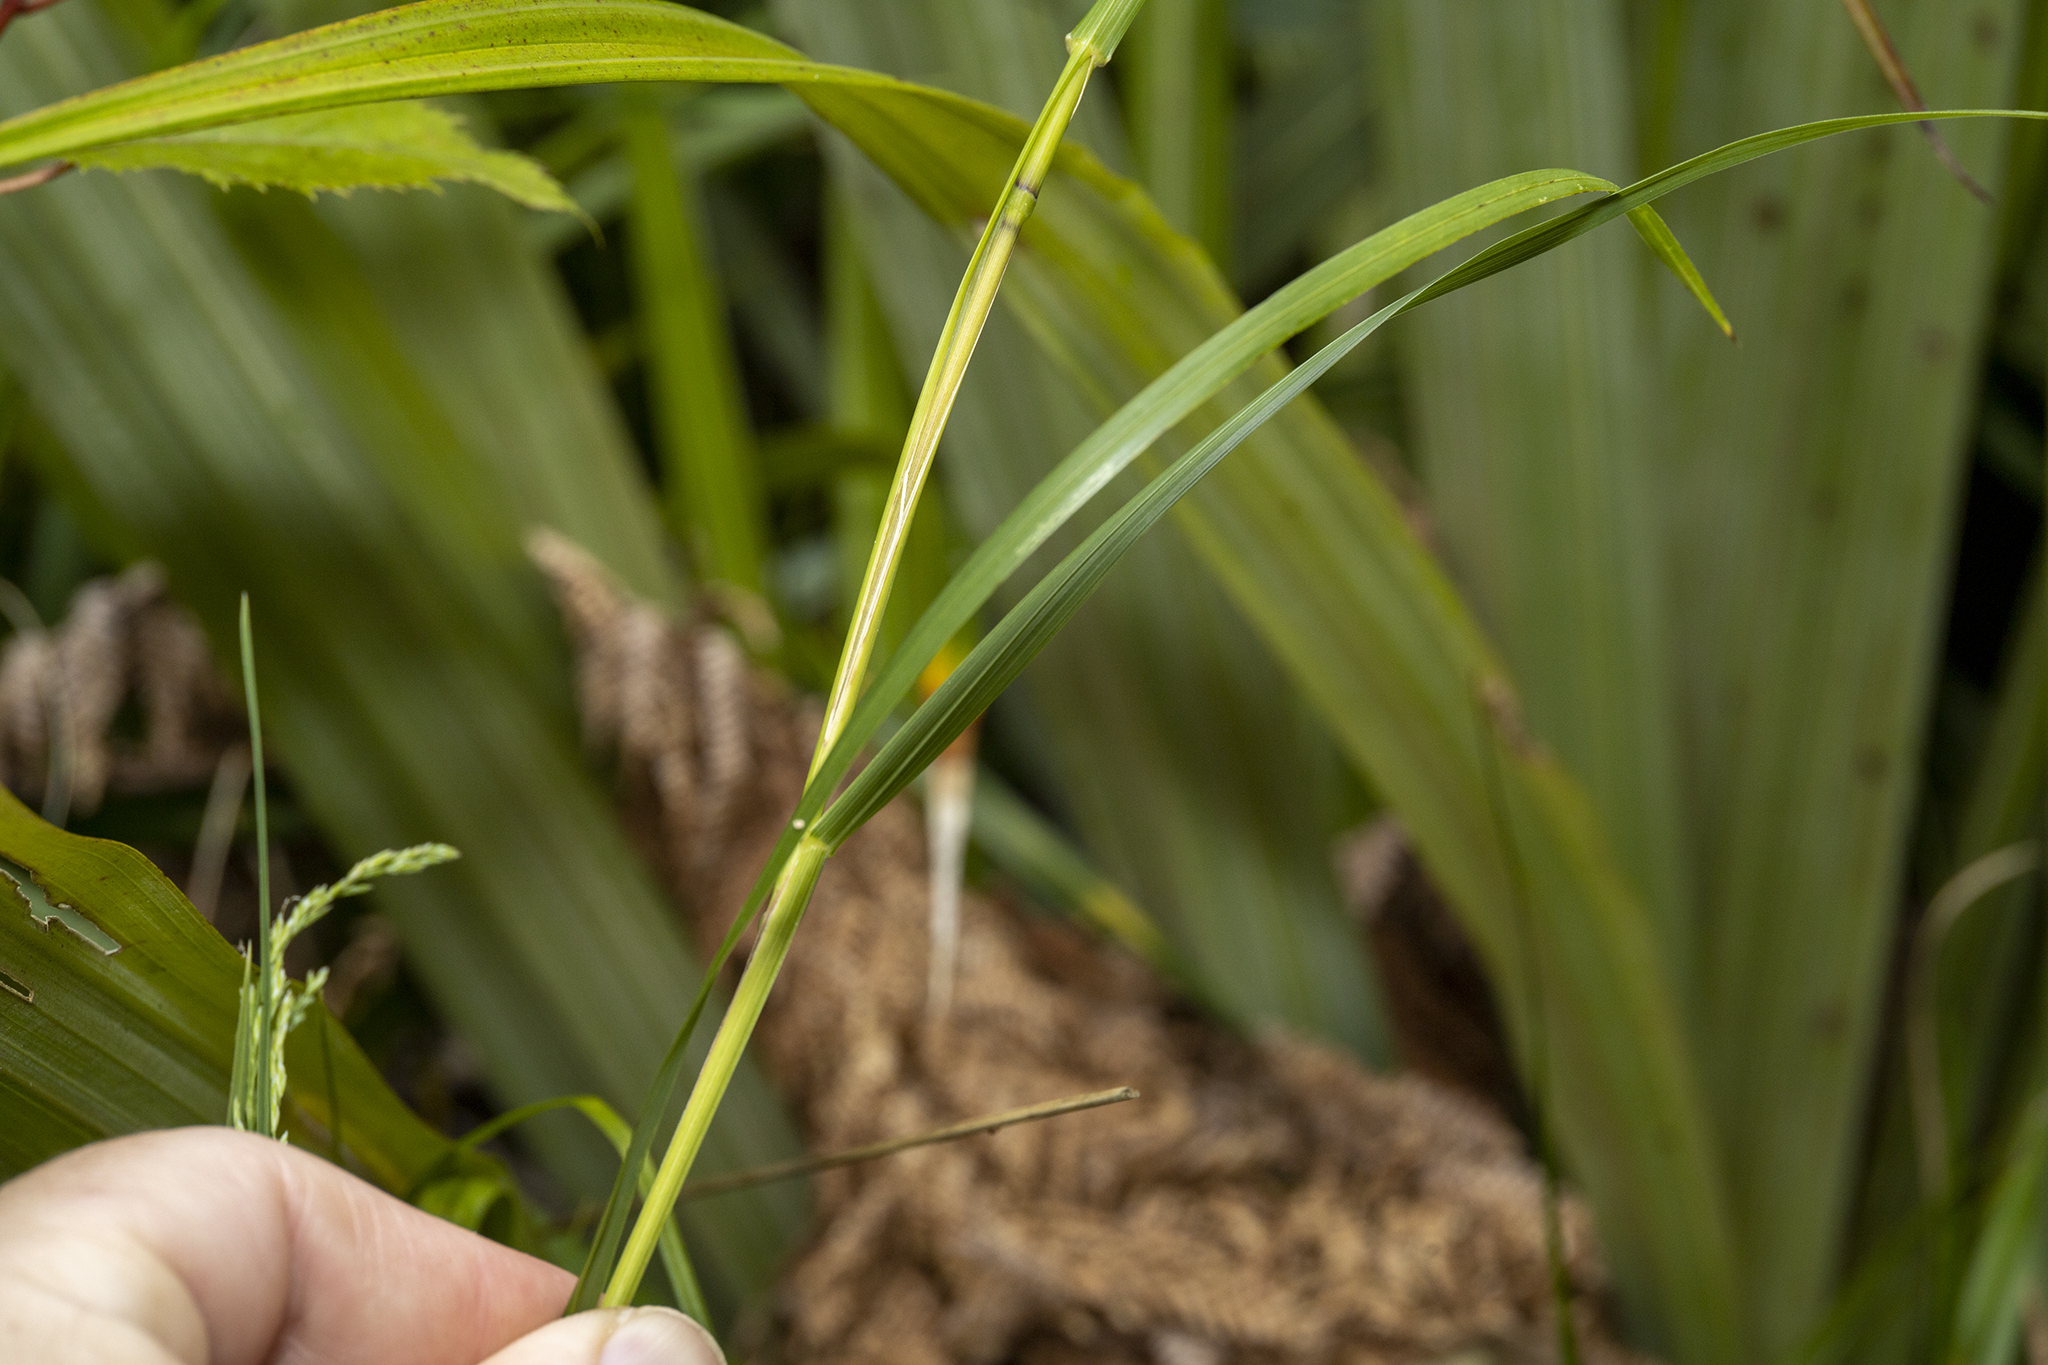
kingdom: Plantae
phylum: Tracheophyta
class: Liliopsida
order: Poales
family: Poaceae
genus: Poa
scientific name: Poa anceps
